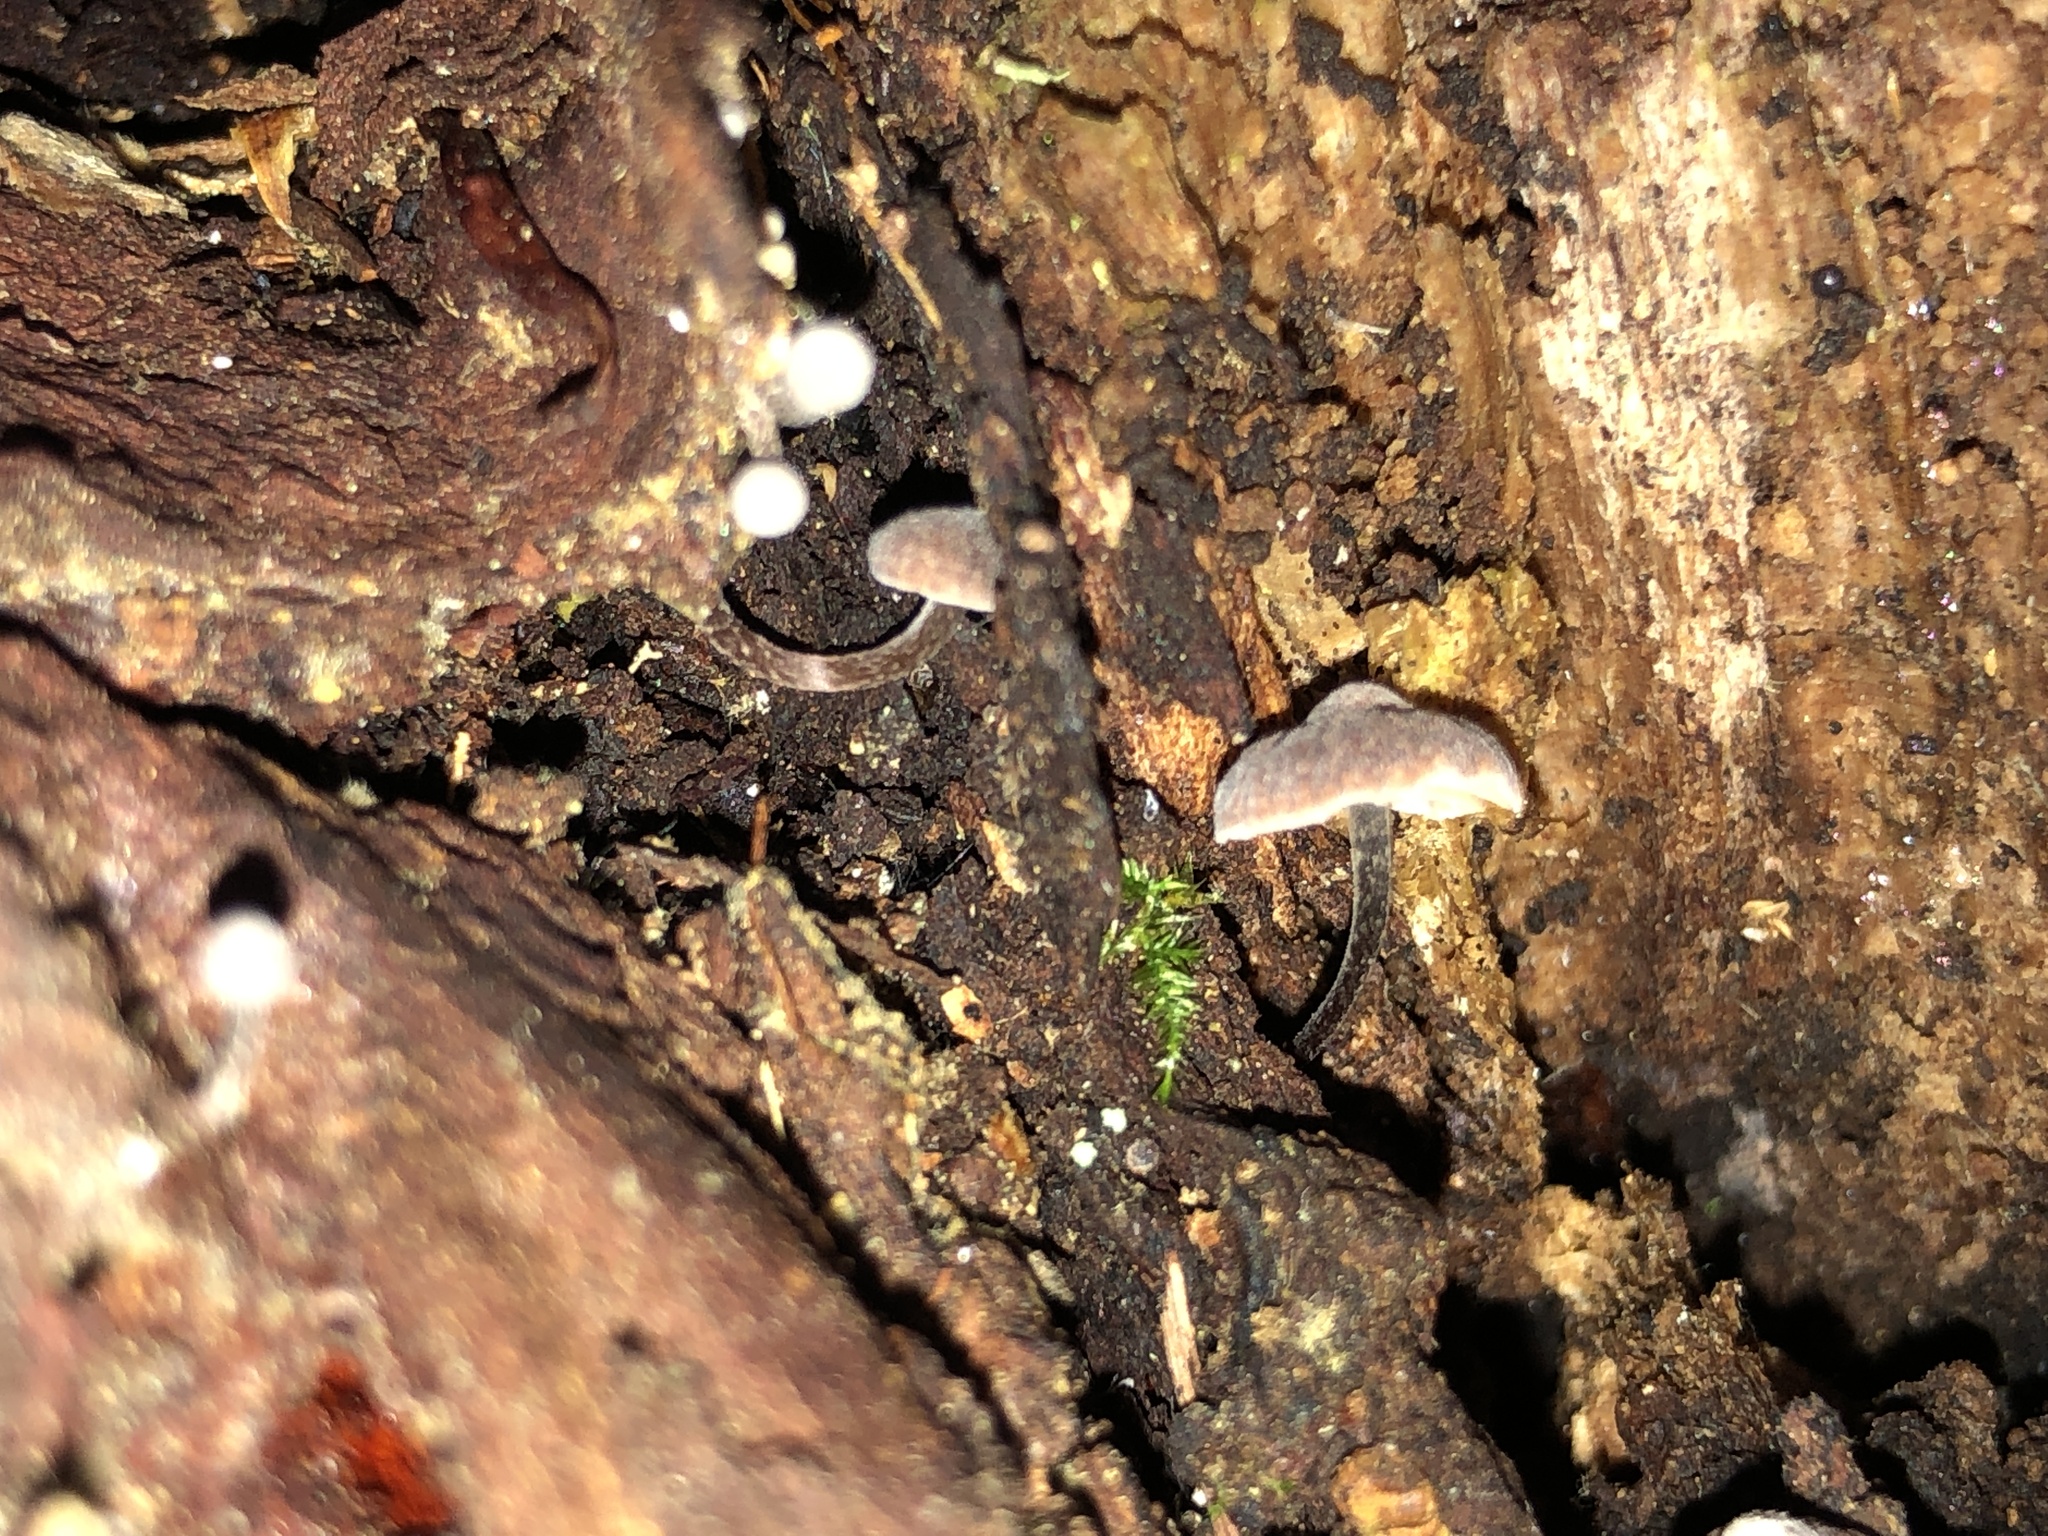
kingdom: Fungi
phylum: Basidiomycota
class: Agaricomycetes
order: Agaricales
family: Omphalotaceae
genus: Micromphale
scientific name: Micromphale arbuticola
